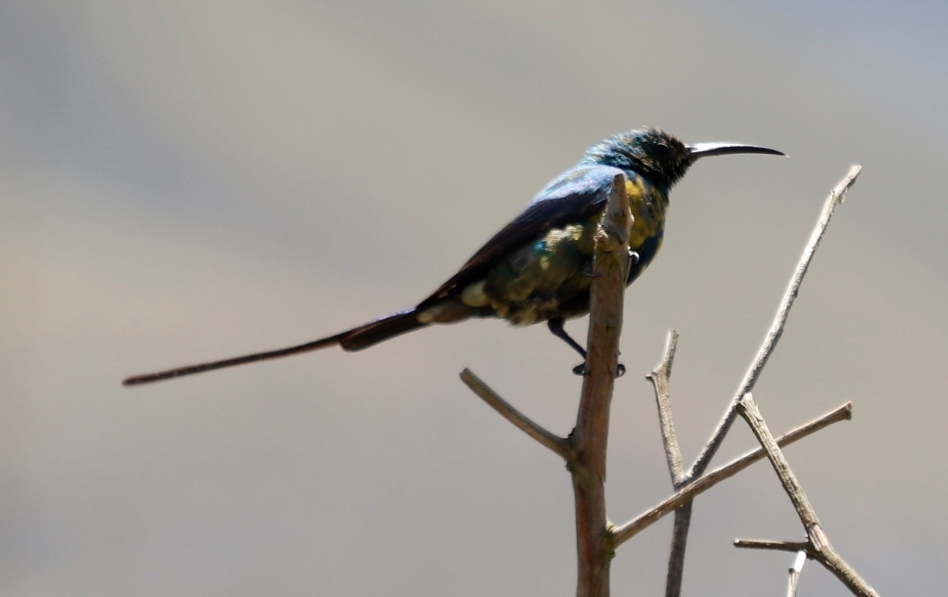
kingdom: Animalia
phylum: Chordata
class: Aves
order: Passeriformes
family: Nectariniidae
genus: Nectarinia
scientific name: Nectarinia famosa
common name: Malachite sunbird
